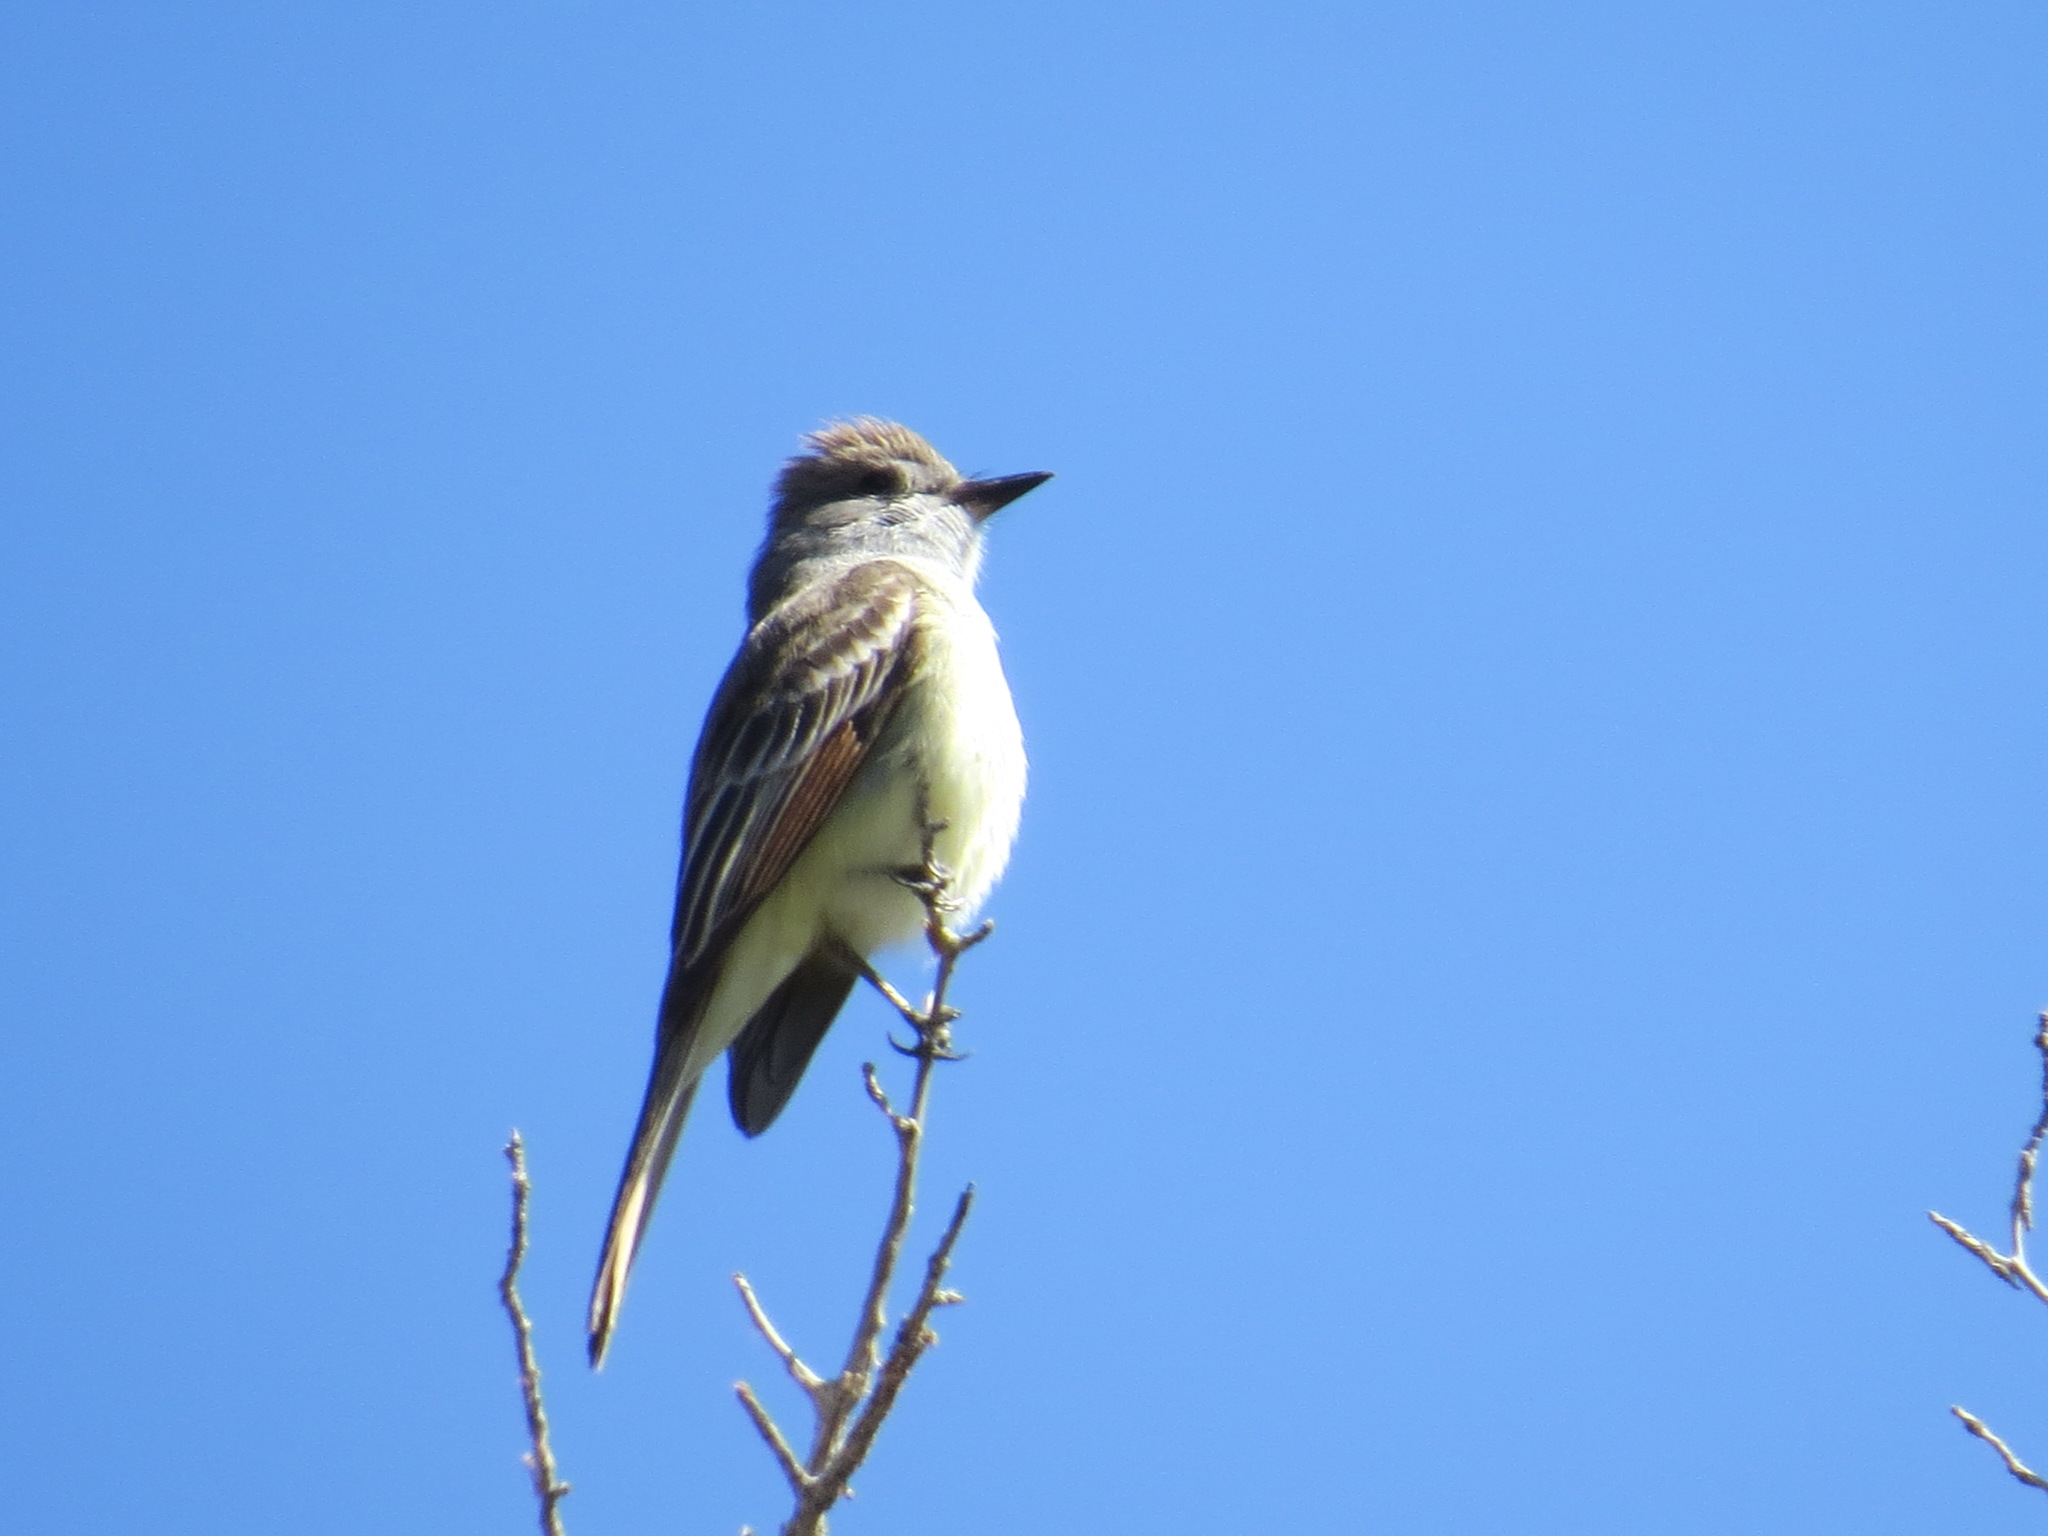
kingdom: Animalia
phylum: Chordata
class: Aves
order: Passeriformes
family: Tyrannidae
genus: Myiarchus
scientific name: Myiarchus cinerascens
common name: Ash-throated flycatcher
